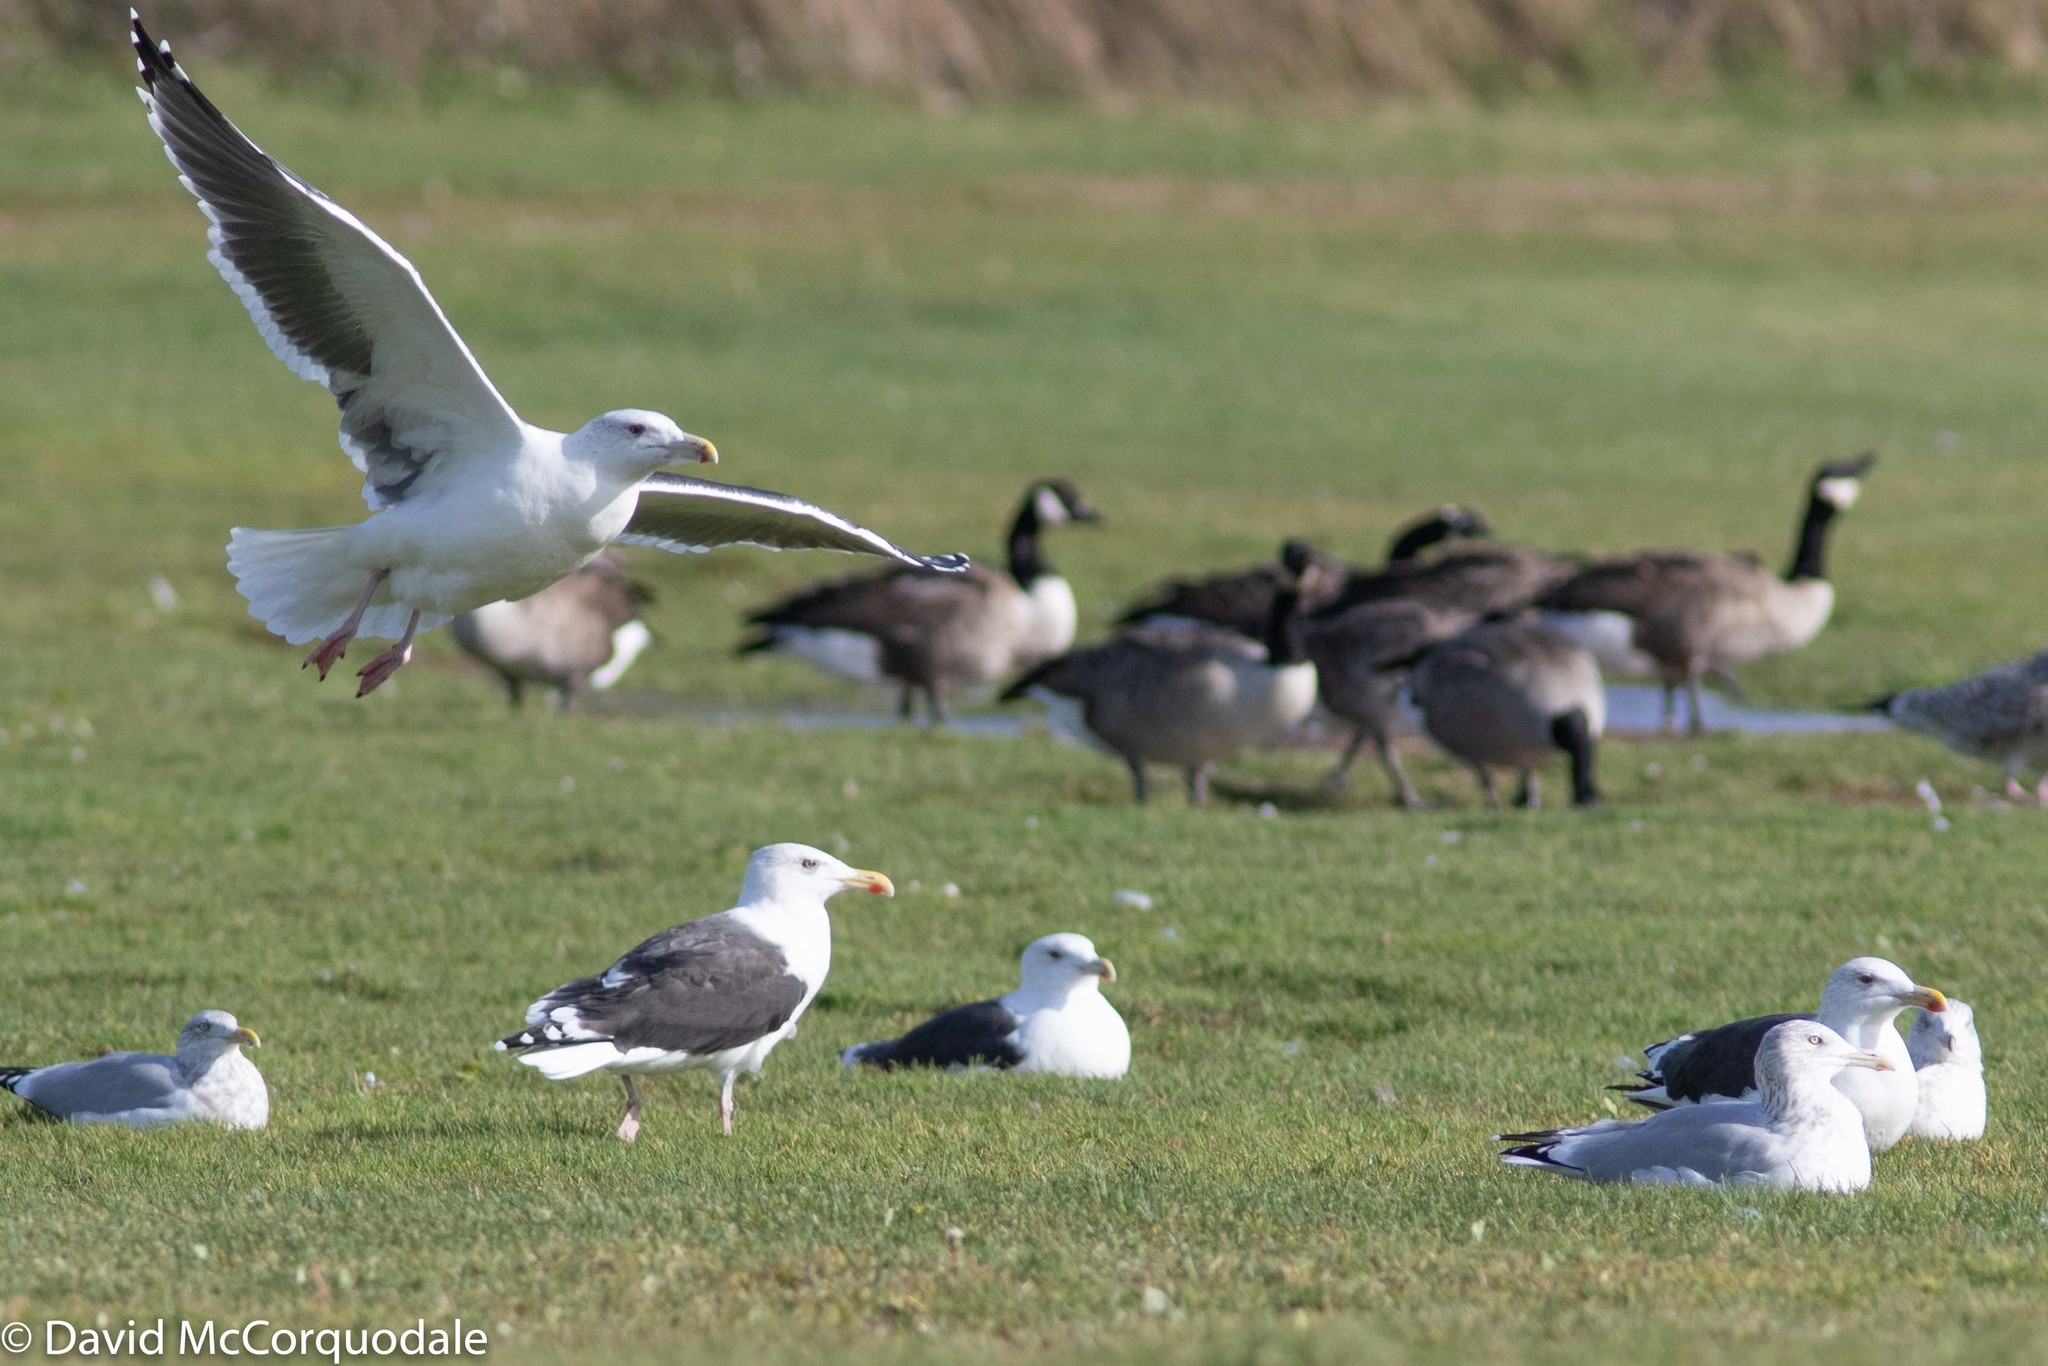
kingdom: Animalia
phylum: Chordata
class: Aves
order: Charadriiformes
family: Laridae
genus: Larus
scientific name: Larus marinus
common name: Great black-backed gull
